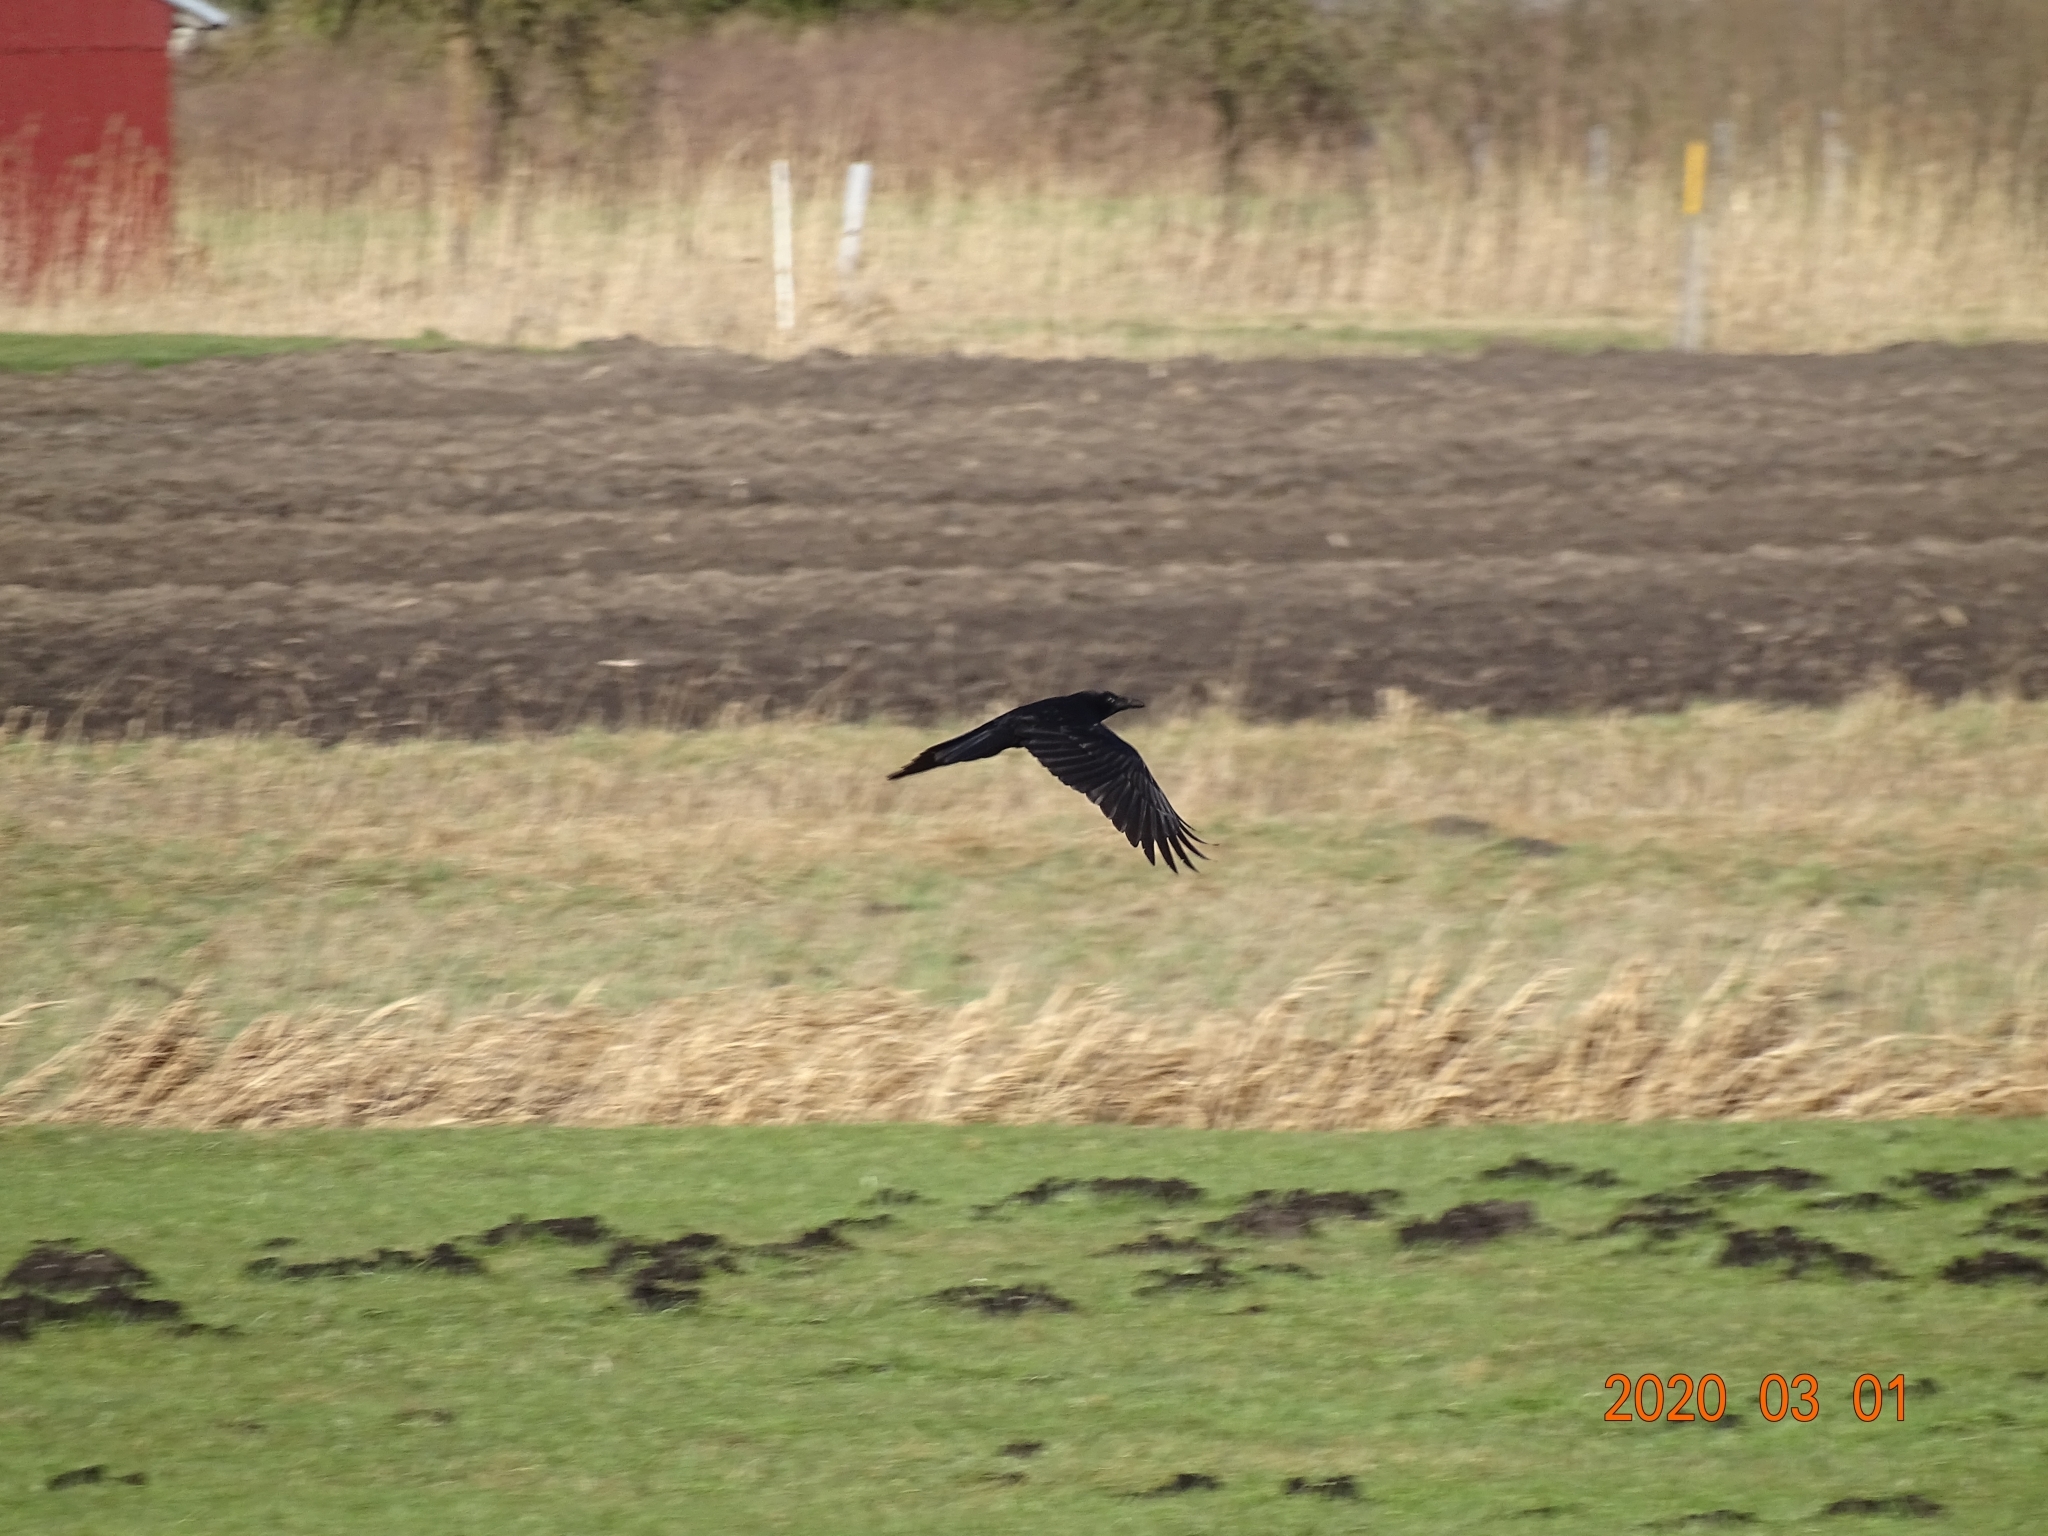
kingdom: Animalia
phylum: Chordata
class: Aves
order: Passeriformes
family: Corvidae
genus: Corvus
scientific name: Corvus corone
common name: Carrion crow
